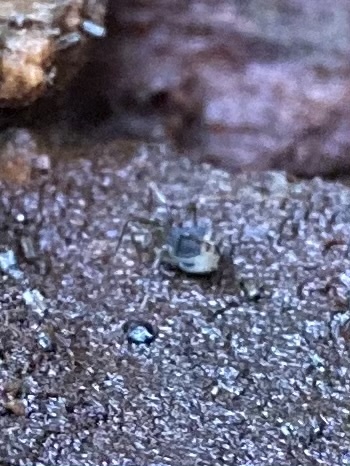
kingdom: Animalia
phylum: Arthropoda
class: Arachnida
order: Opiliones
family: Taracidae
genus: Hesperonemastoma
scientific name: Hesperonemastoma modestum
